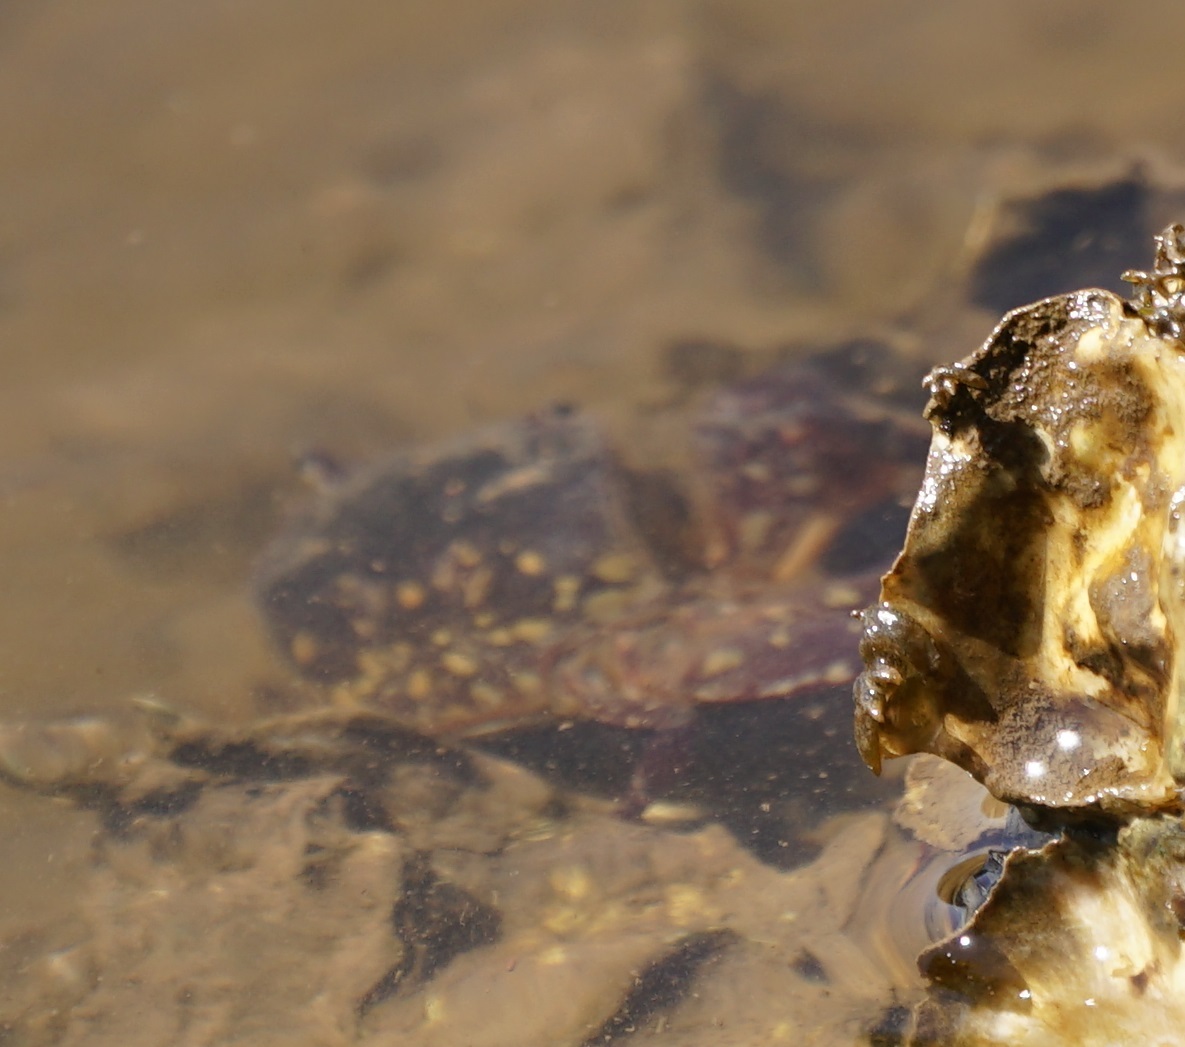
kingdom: Animalia
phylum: Arthropoda
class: Malacostraca
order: Decapoda
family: Varunidae
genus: Paragrapsus
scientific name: Paragrapsus laevis
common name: Smooth shore crab
